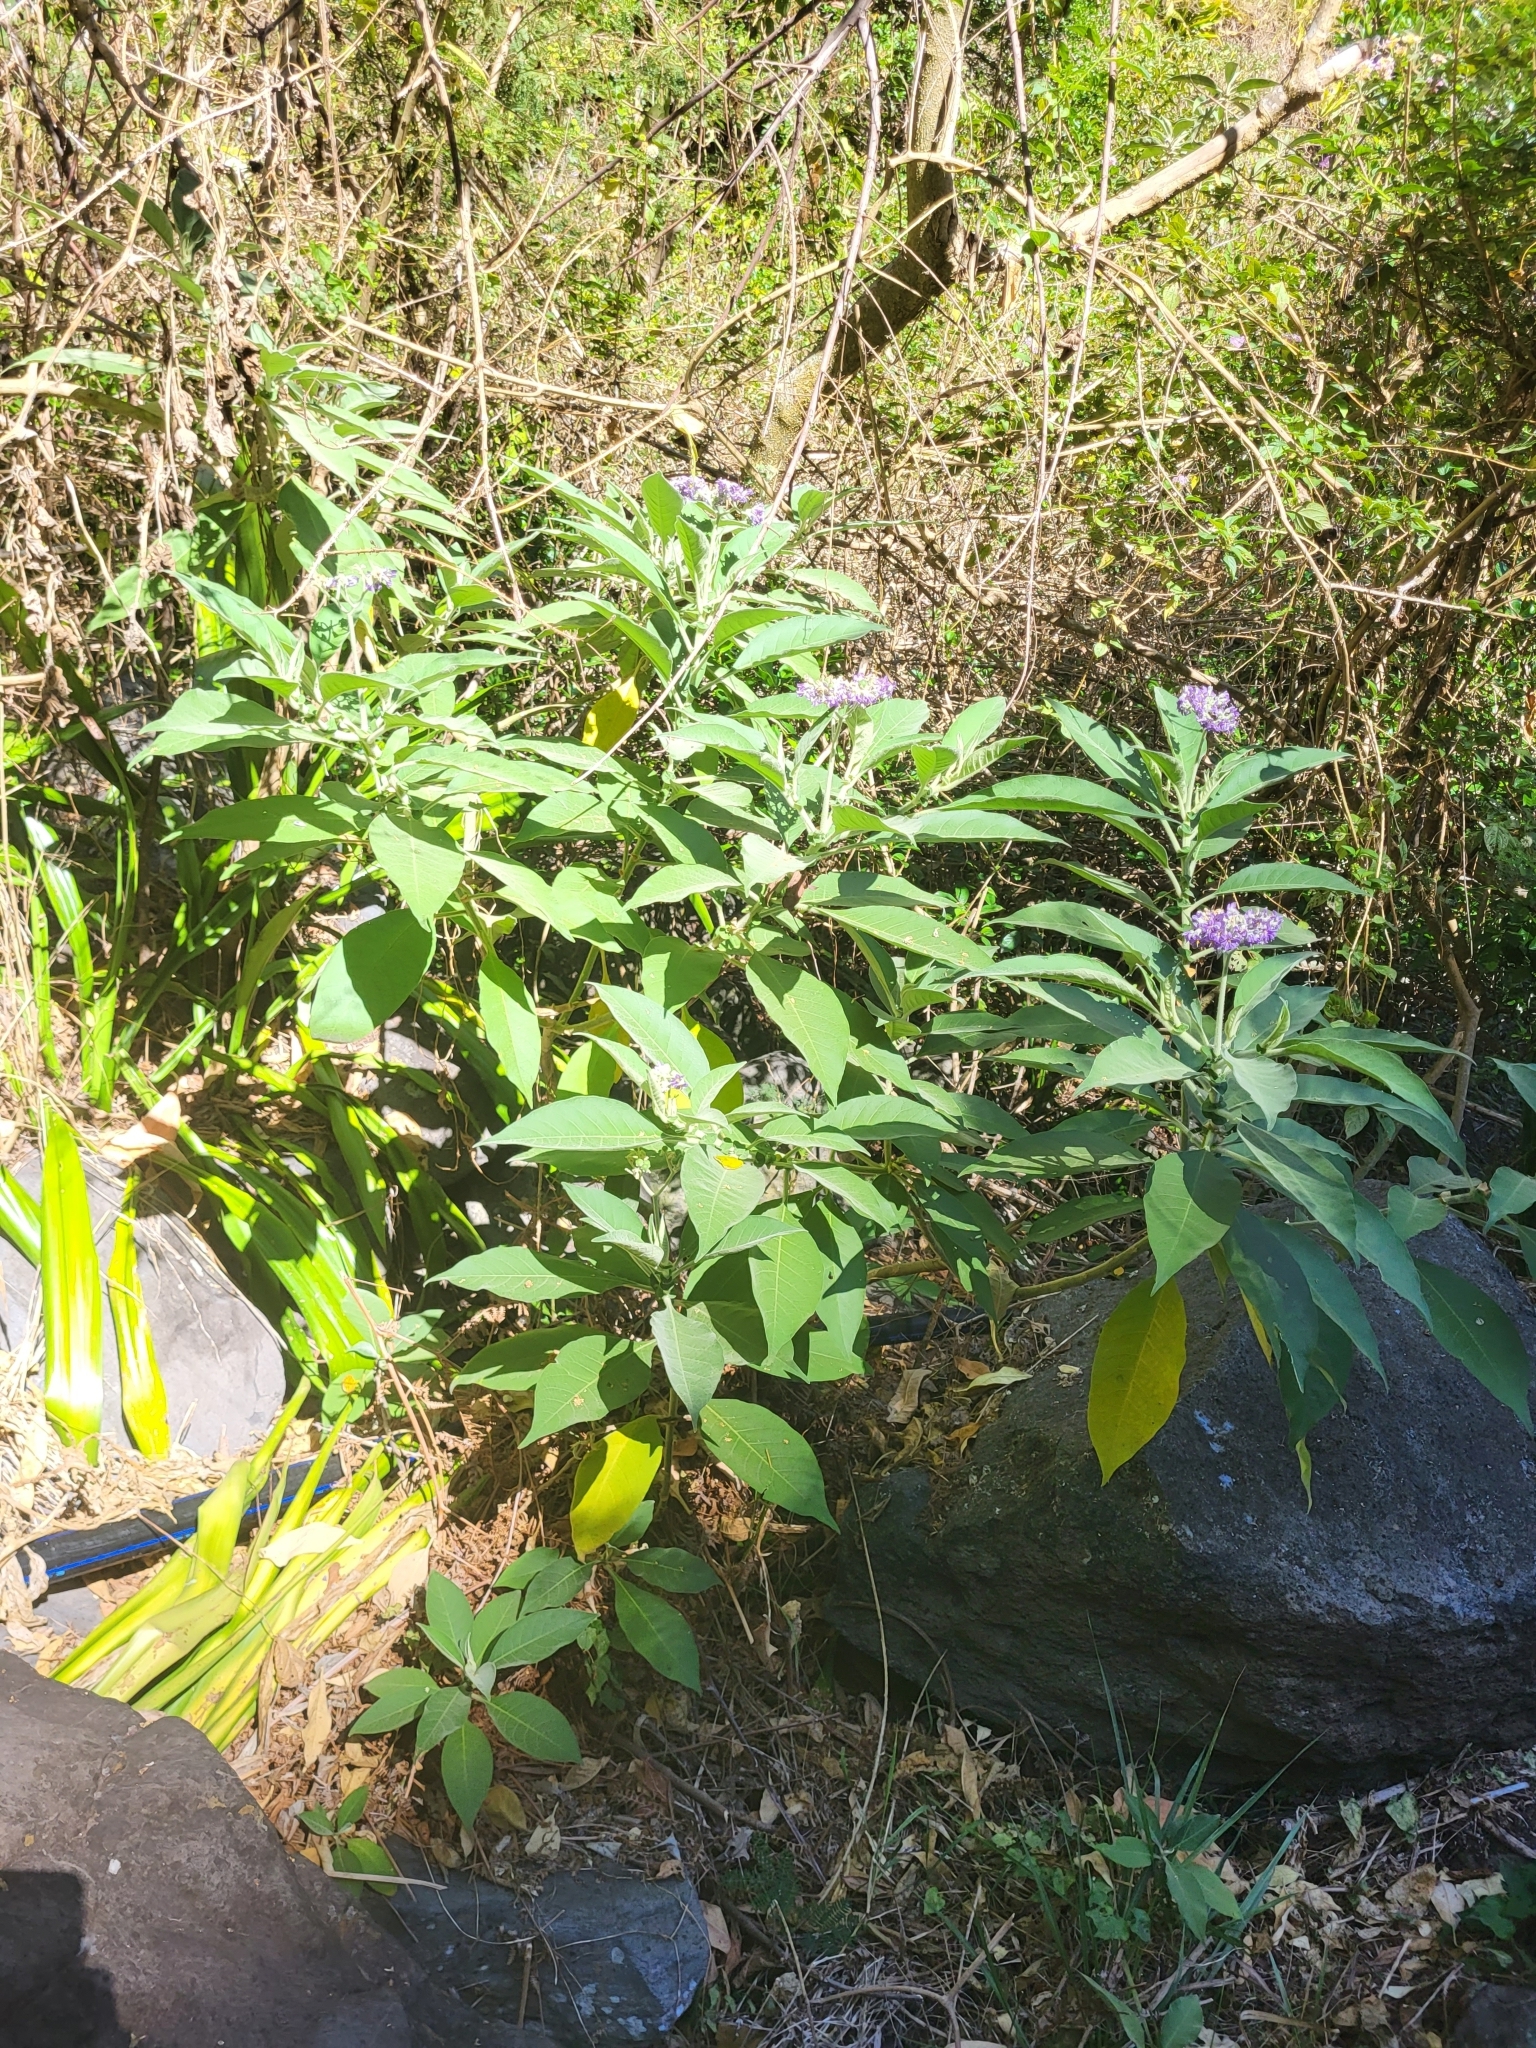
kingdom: Plantae
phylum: Tracheophyta
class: Magnoliopsida
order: Solanales
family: Solanaceae
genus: Solanum
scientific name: Solanum mauritianum
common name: Earleaf nightshade
